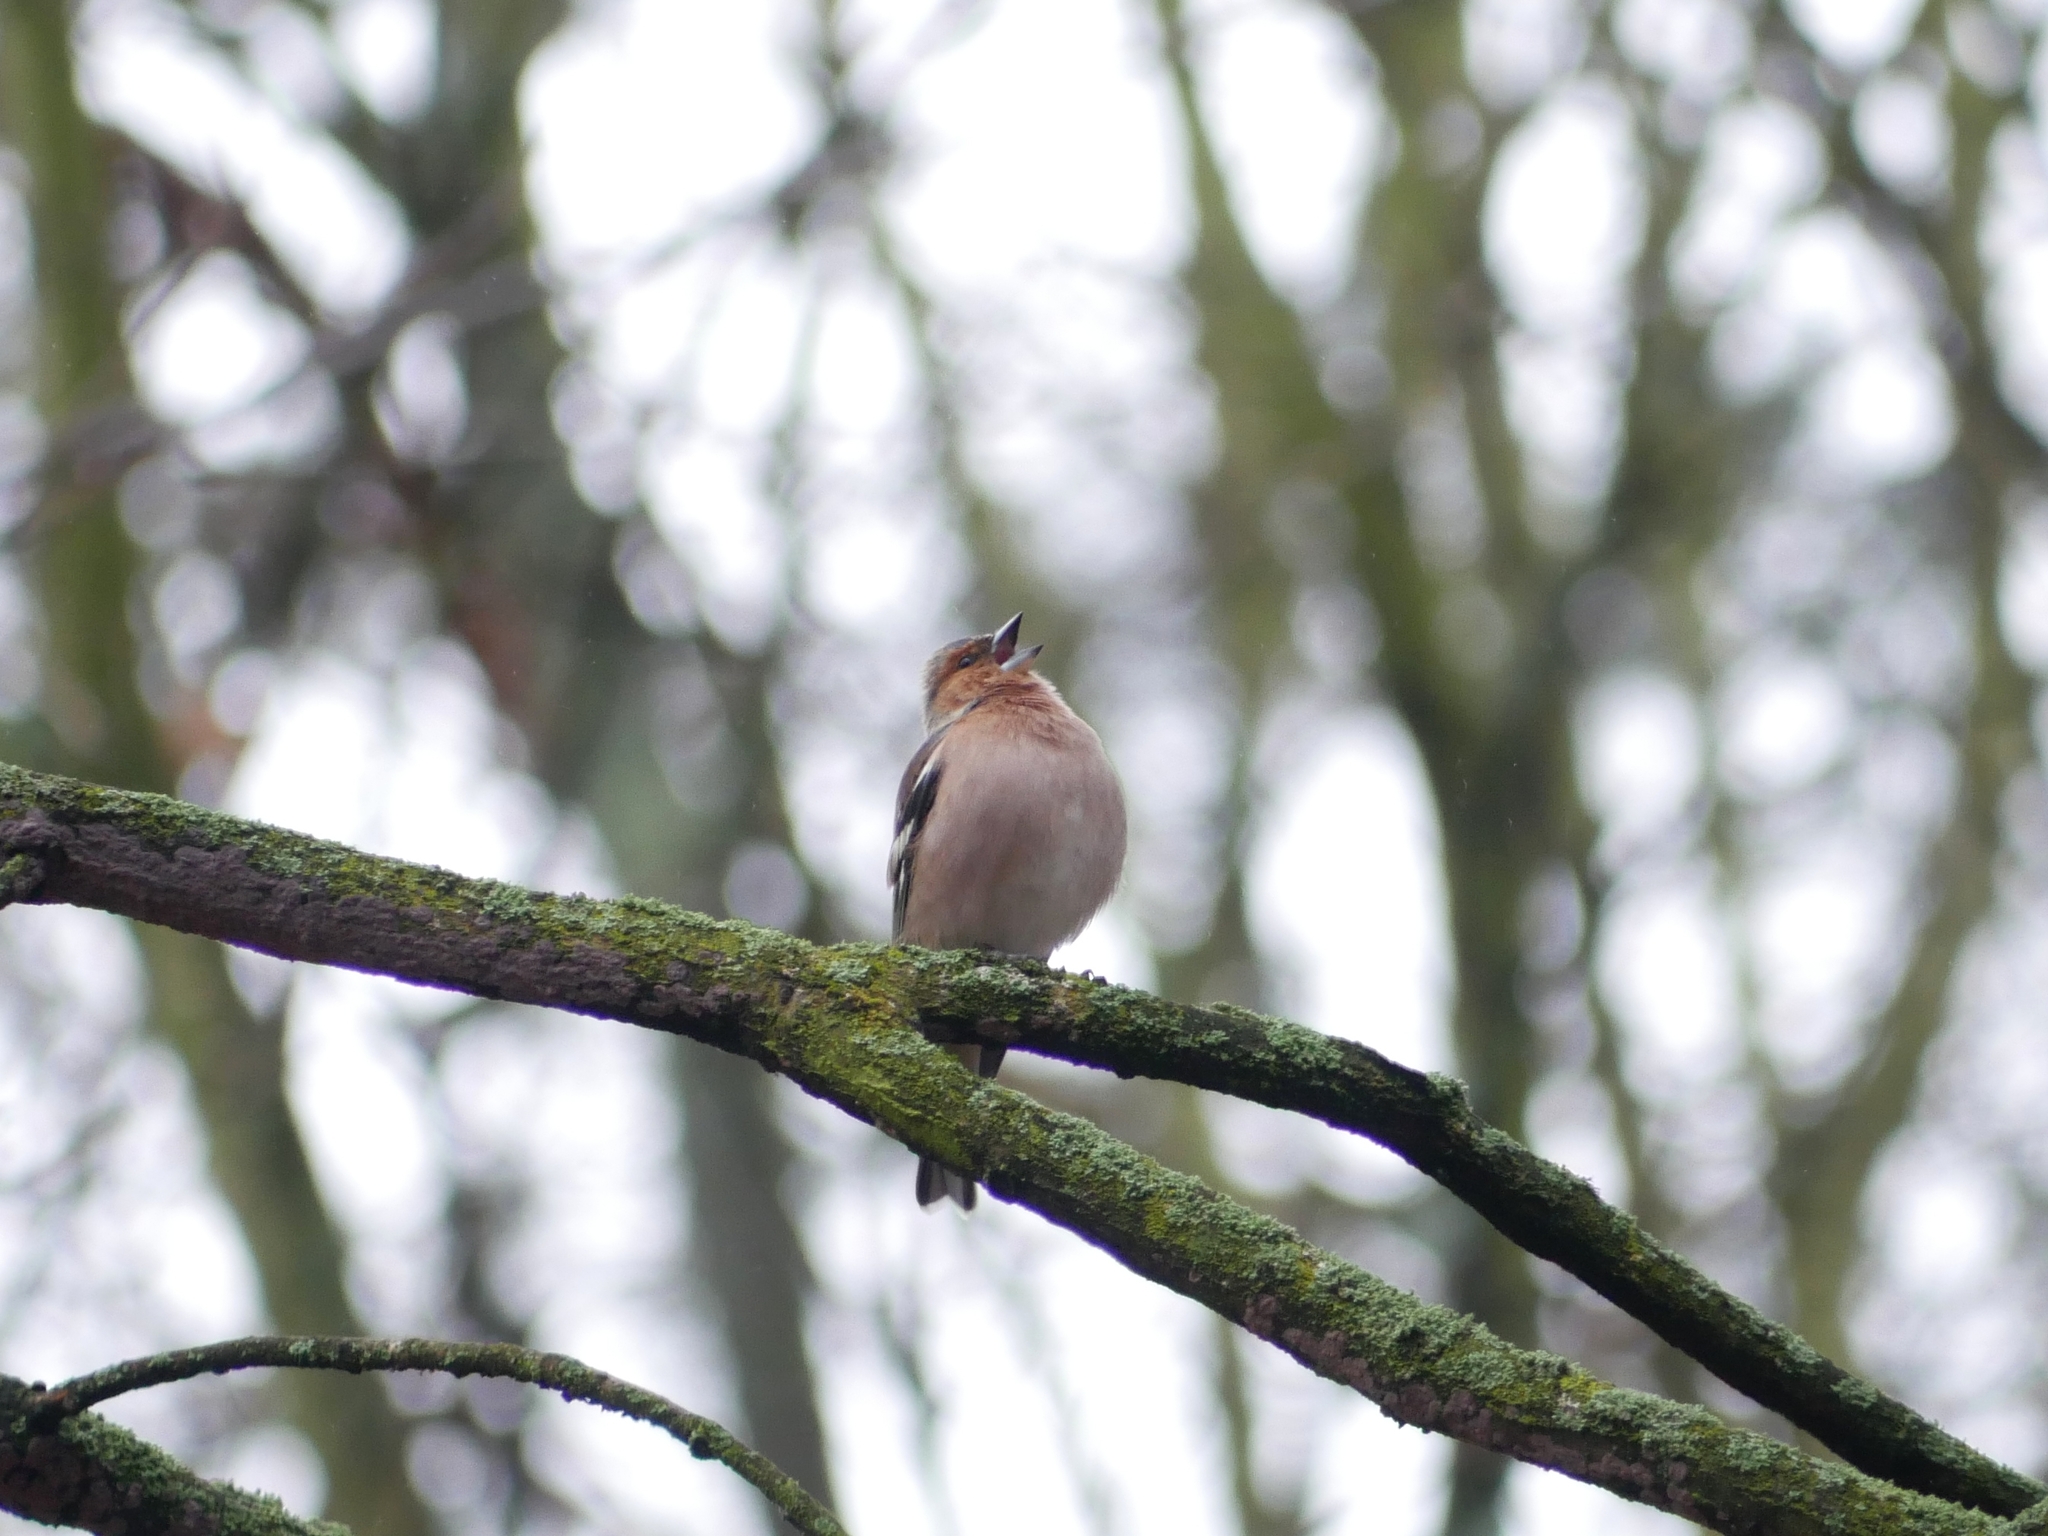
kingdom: Animalia
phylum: Chordata
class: Aves
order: Passeriformes
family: Fringillidae
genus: Fringilla
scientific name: Fringilla coelebs
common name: Common chaffinch
